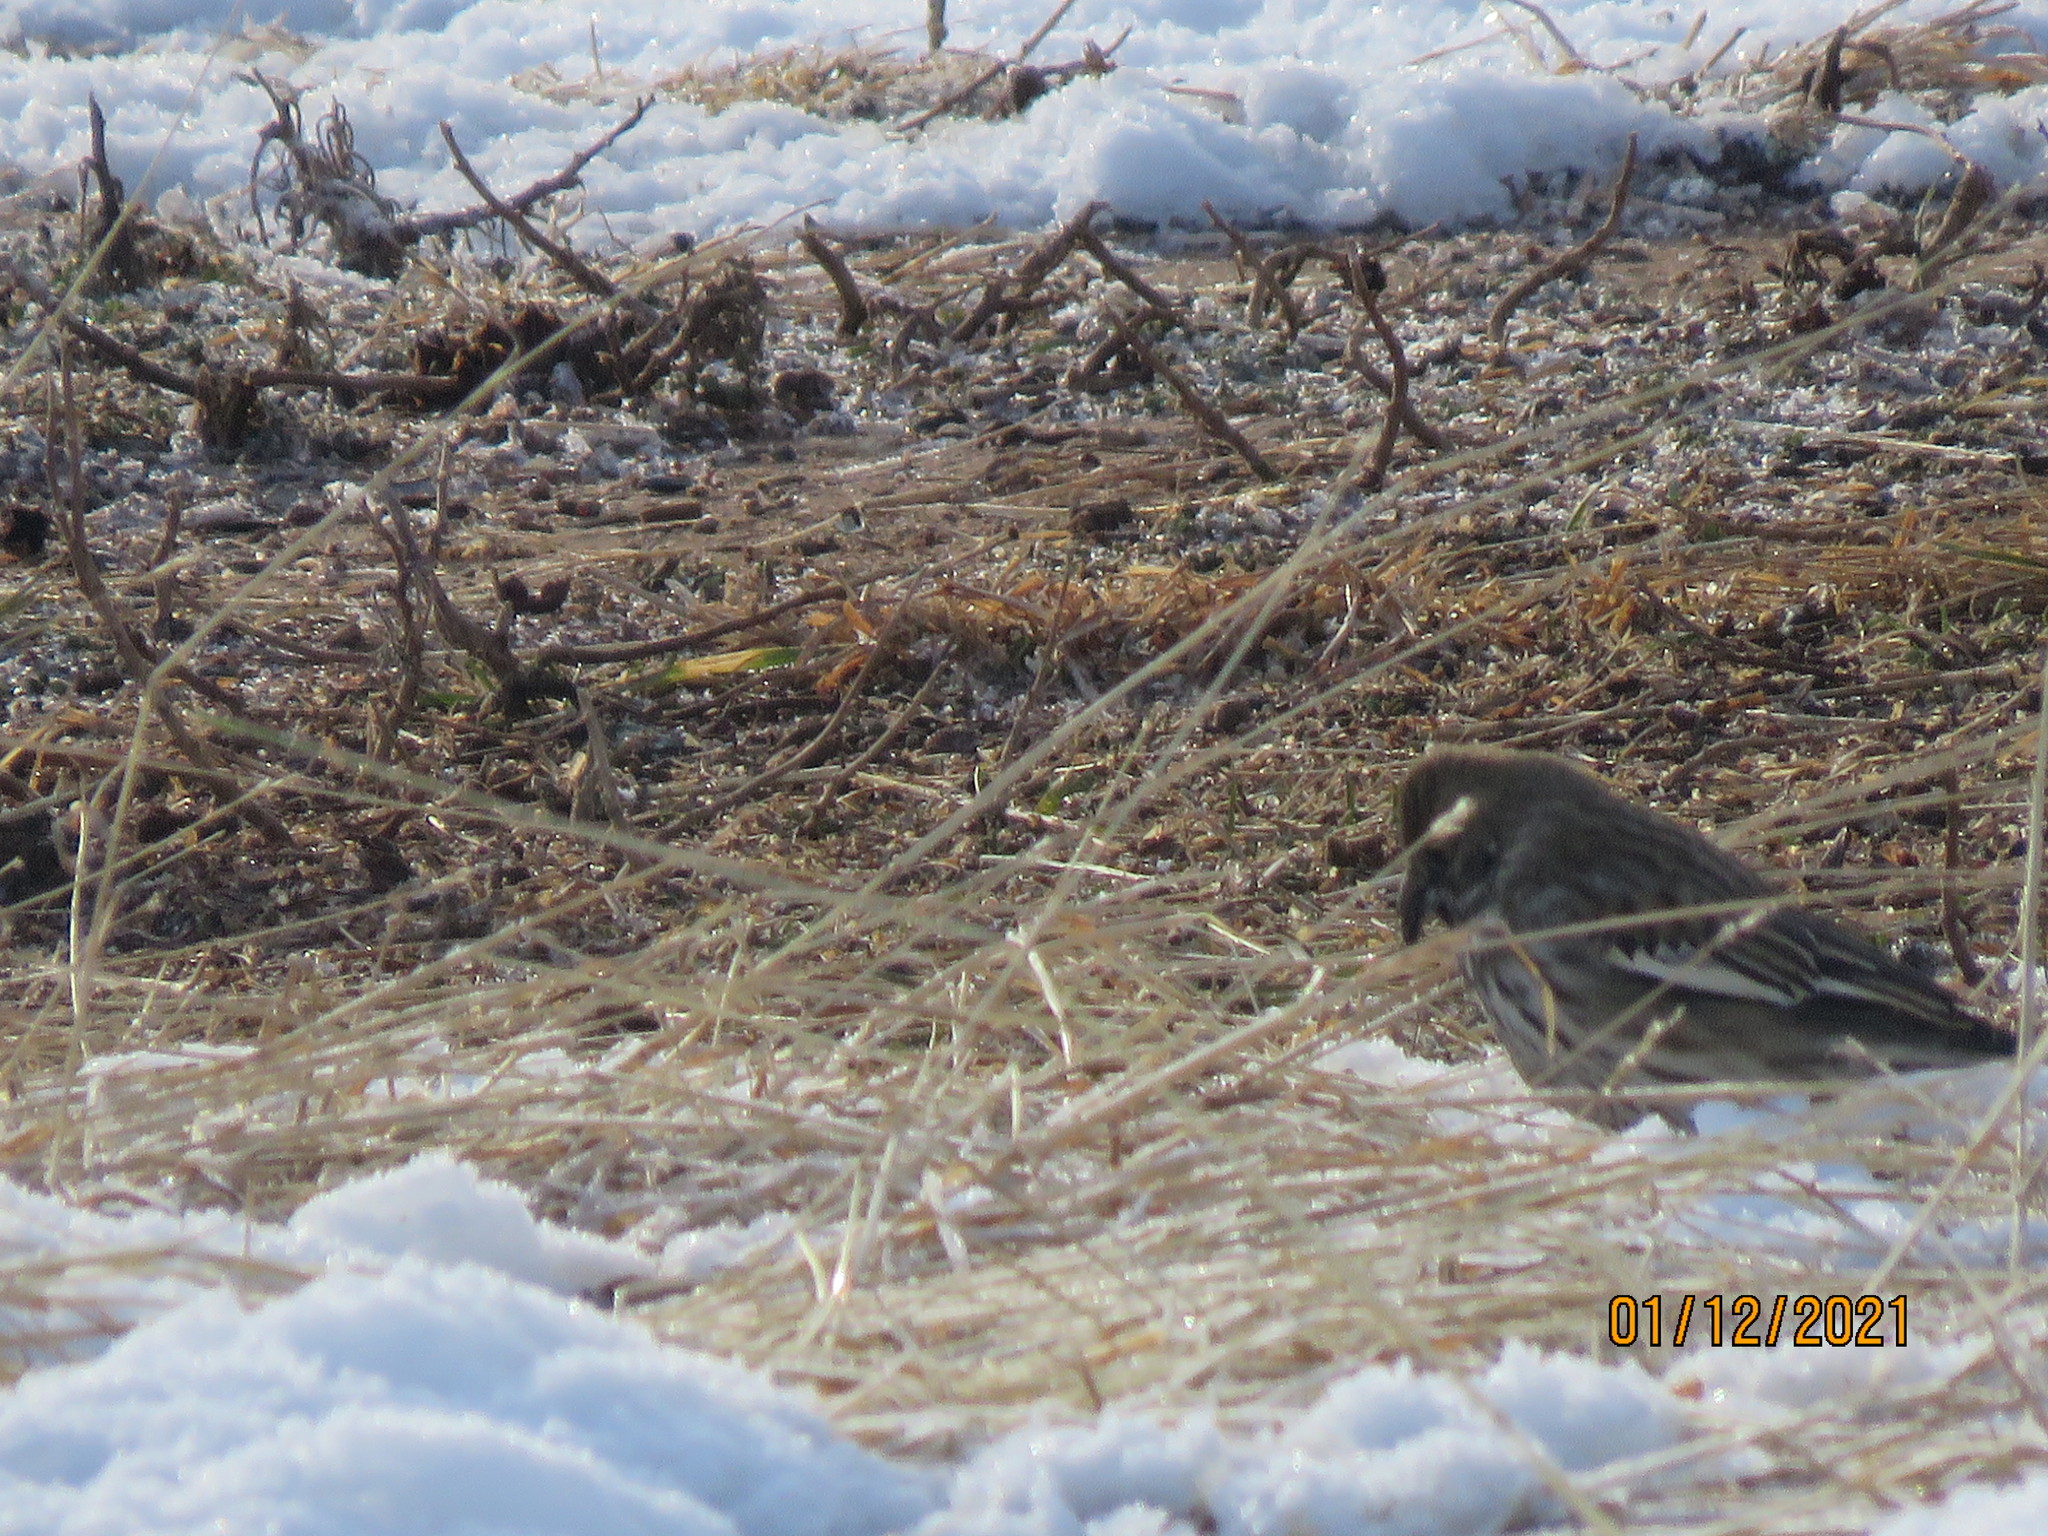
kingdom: Animalia
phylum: Chordata
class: Aves
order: Passeriformes
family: Passerellidae
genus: Calamospiza
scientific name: Calamospiza melanocorys
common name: Lark bunting
